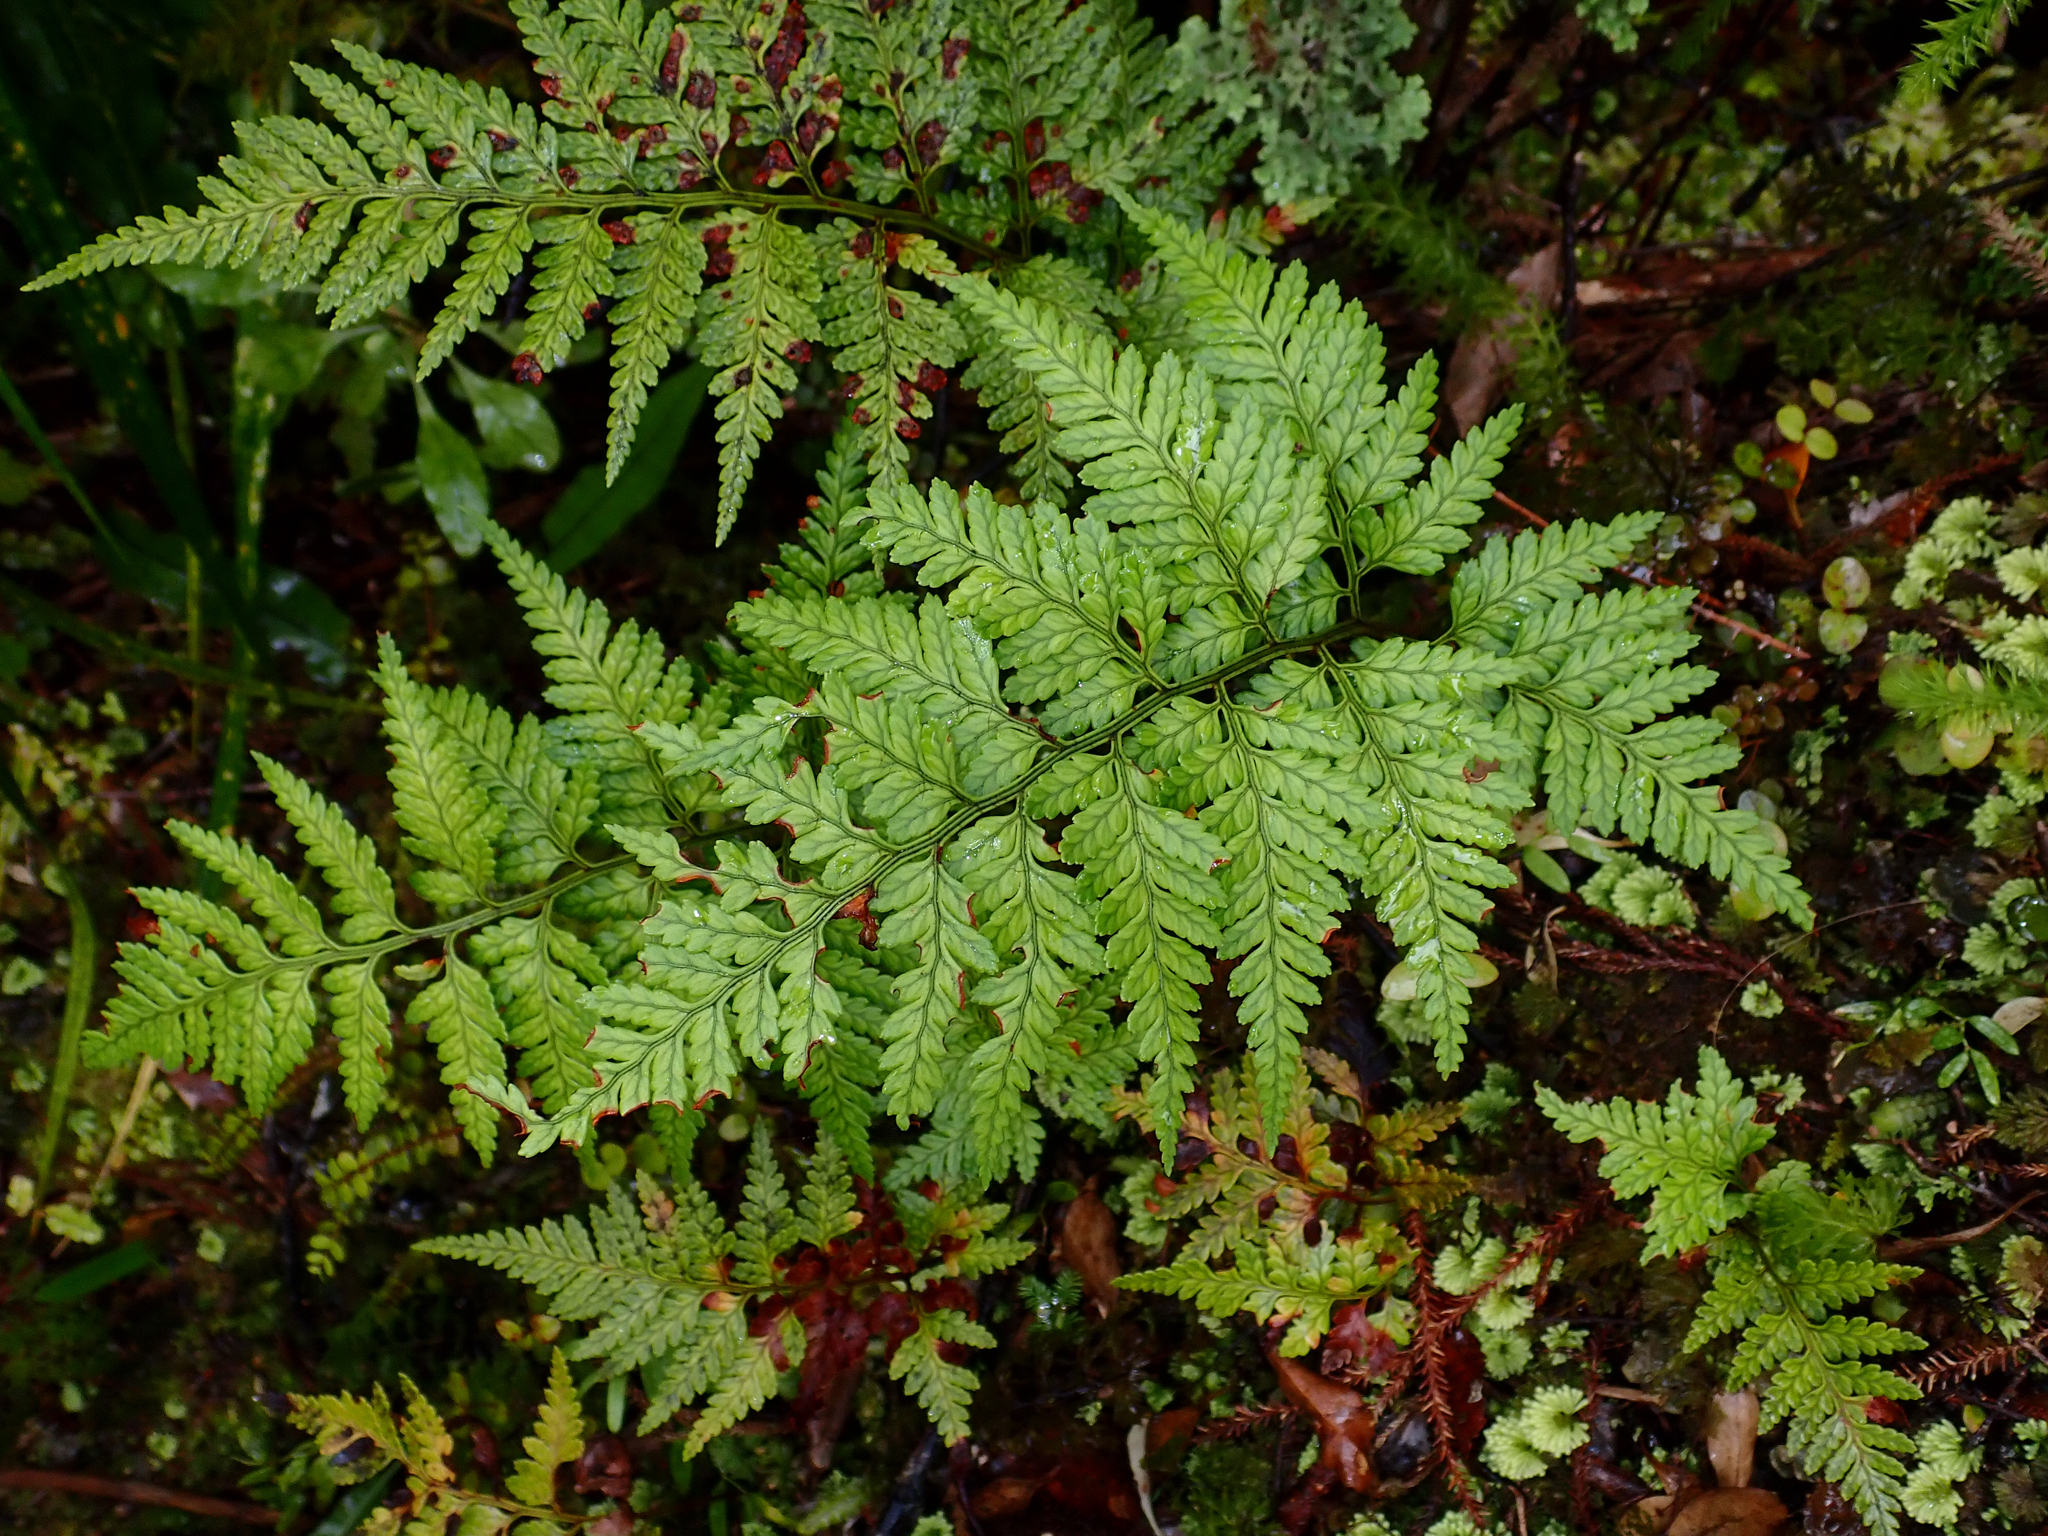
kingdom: Plantae
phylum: Tracheophyta
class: Polypodiopsida
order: Polypodiales
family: Dryopteridaceae
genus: Rumohra
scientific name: Rumohra adiantiformis
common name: Leather fern
